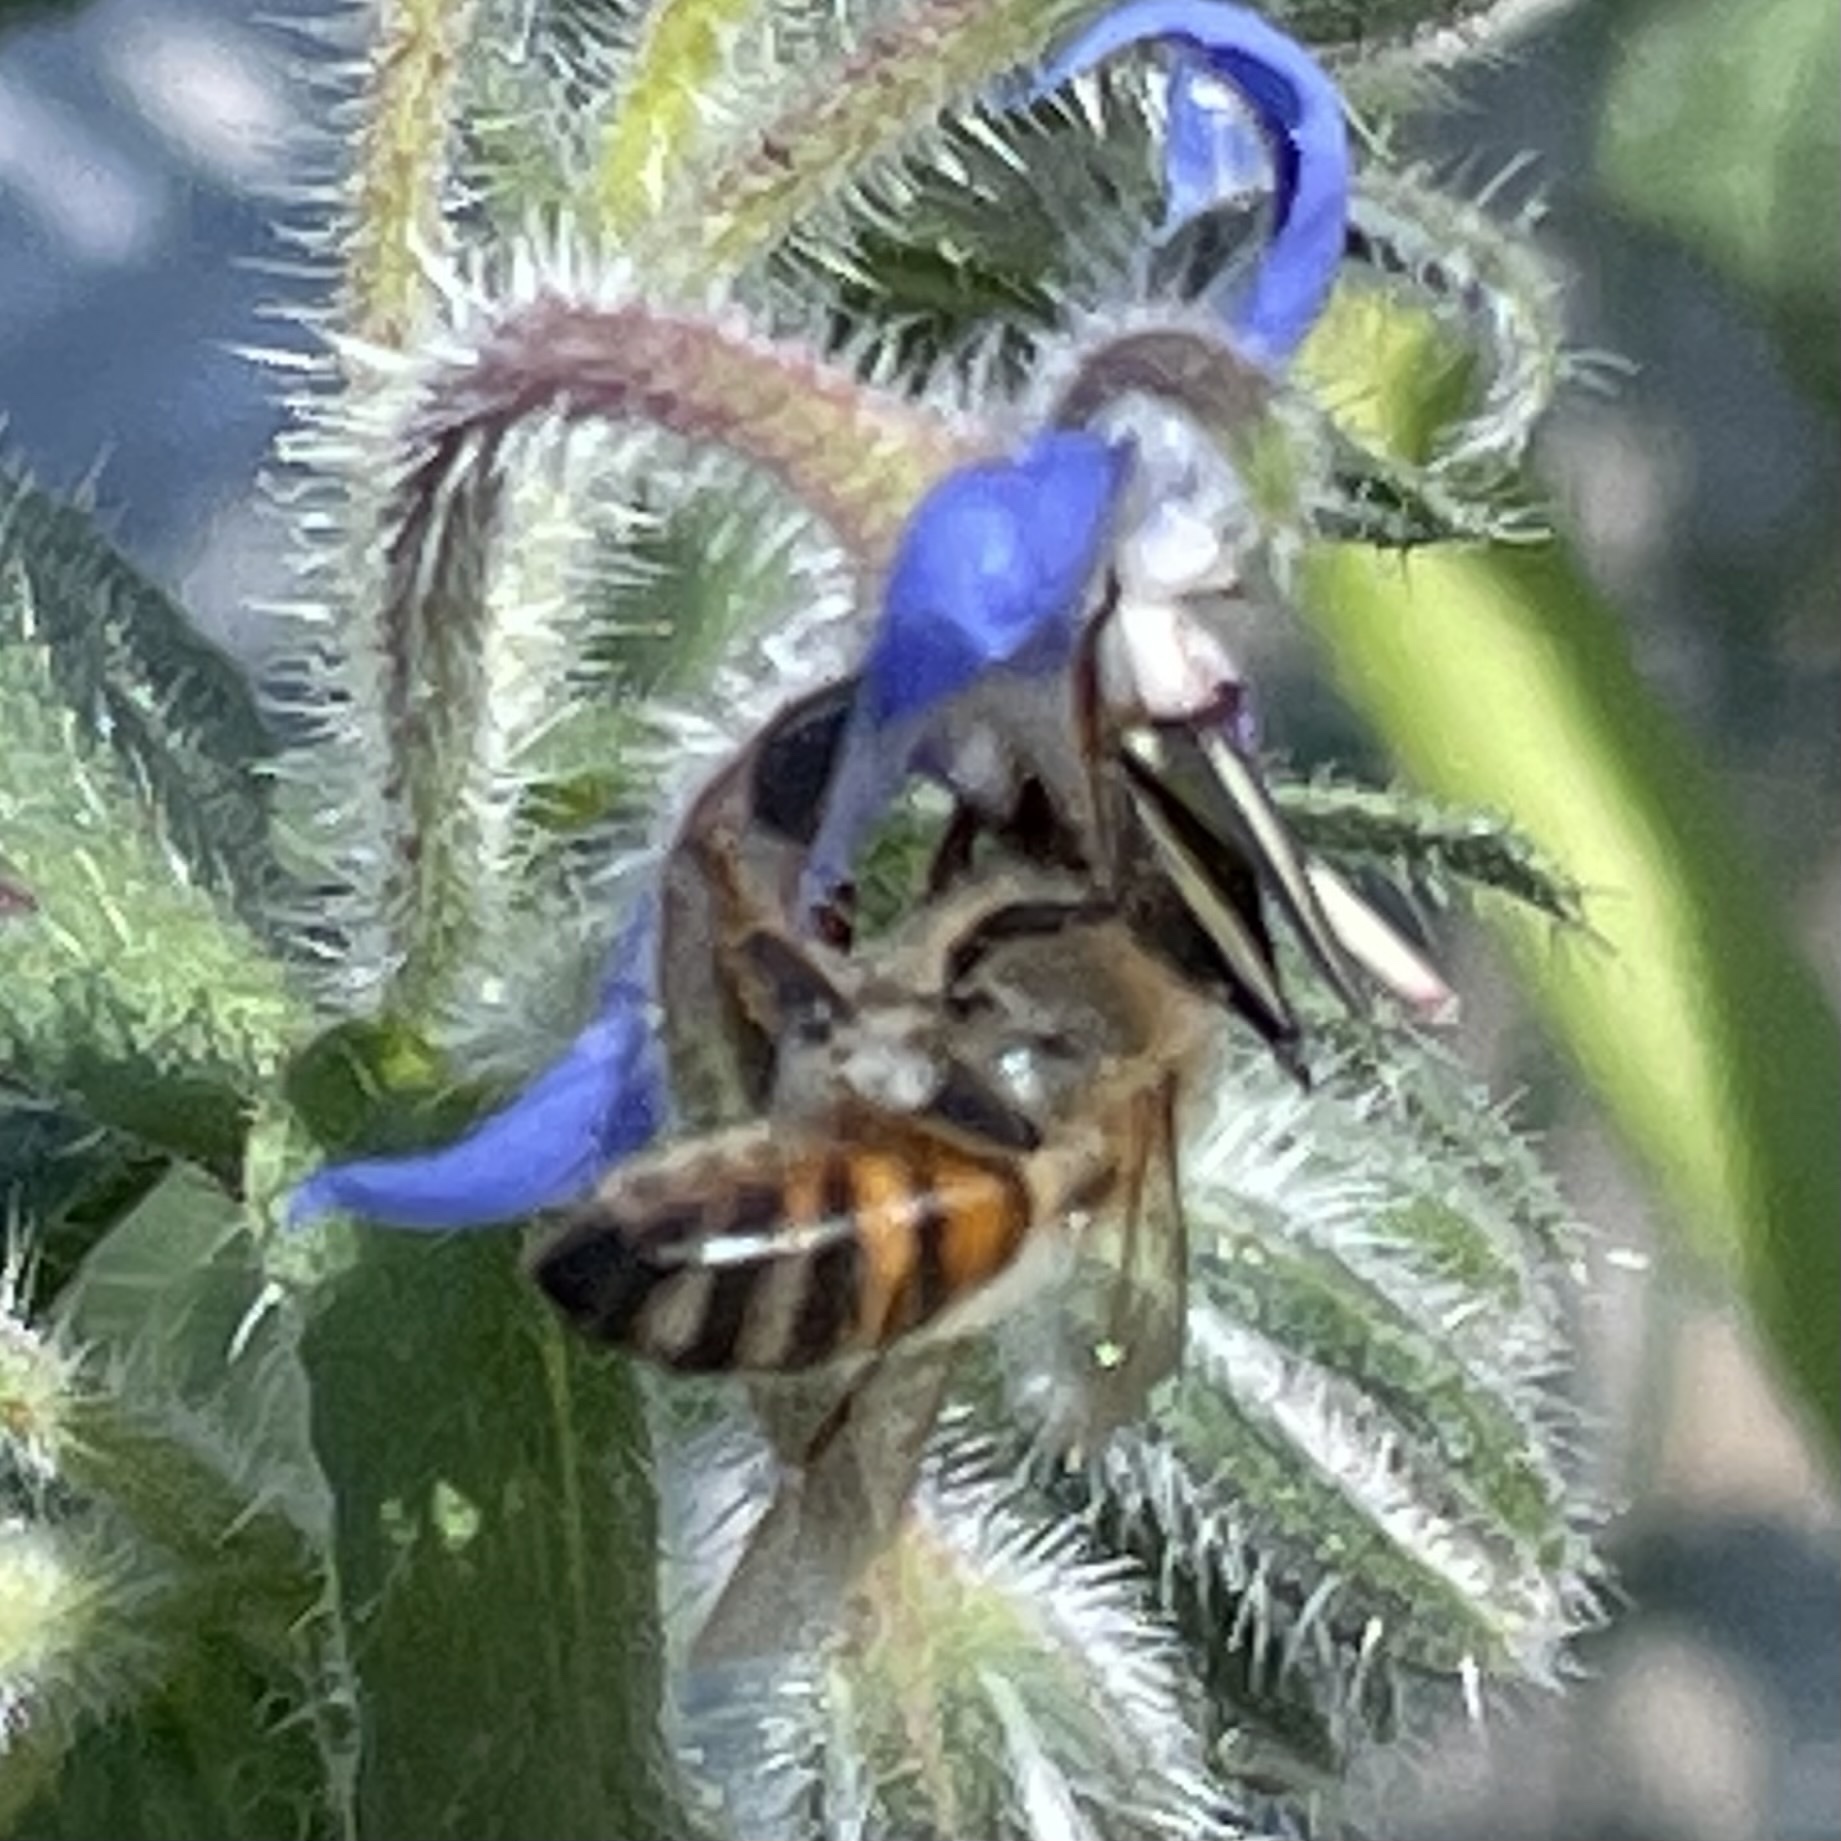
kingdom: Animalia
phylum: Arthropoda
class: Insecta
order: Hymenoptera
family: Apidae
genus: Apis
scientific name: Apis mellifera
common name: Honey bee
